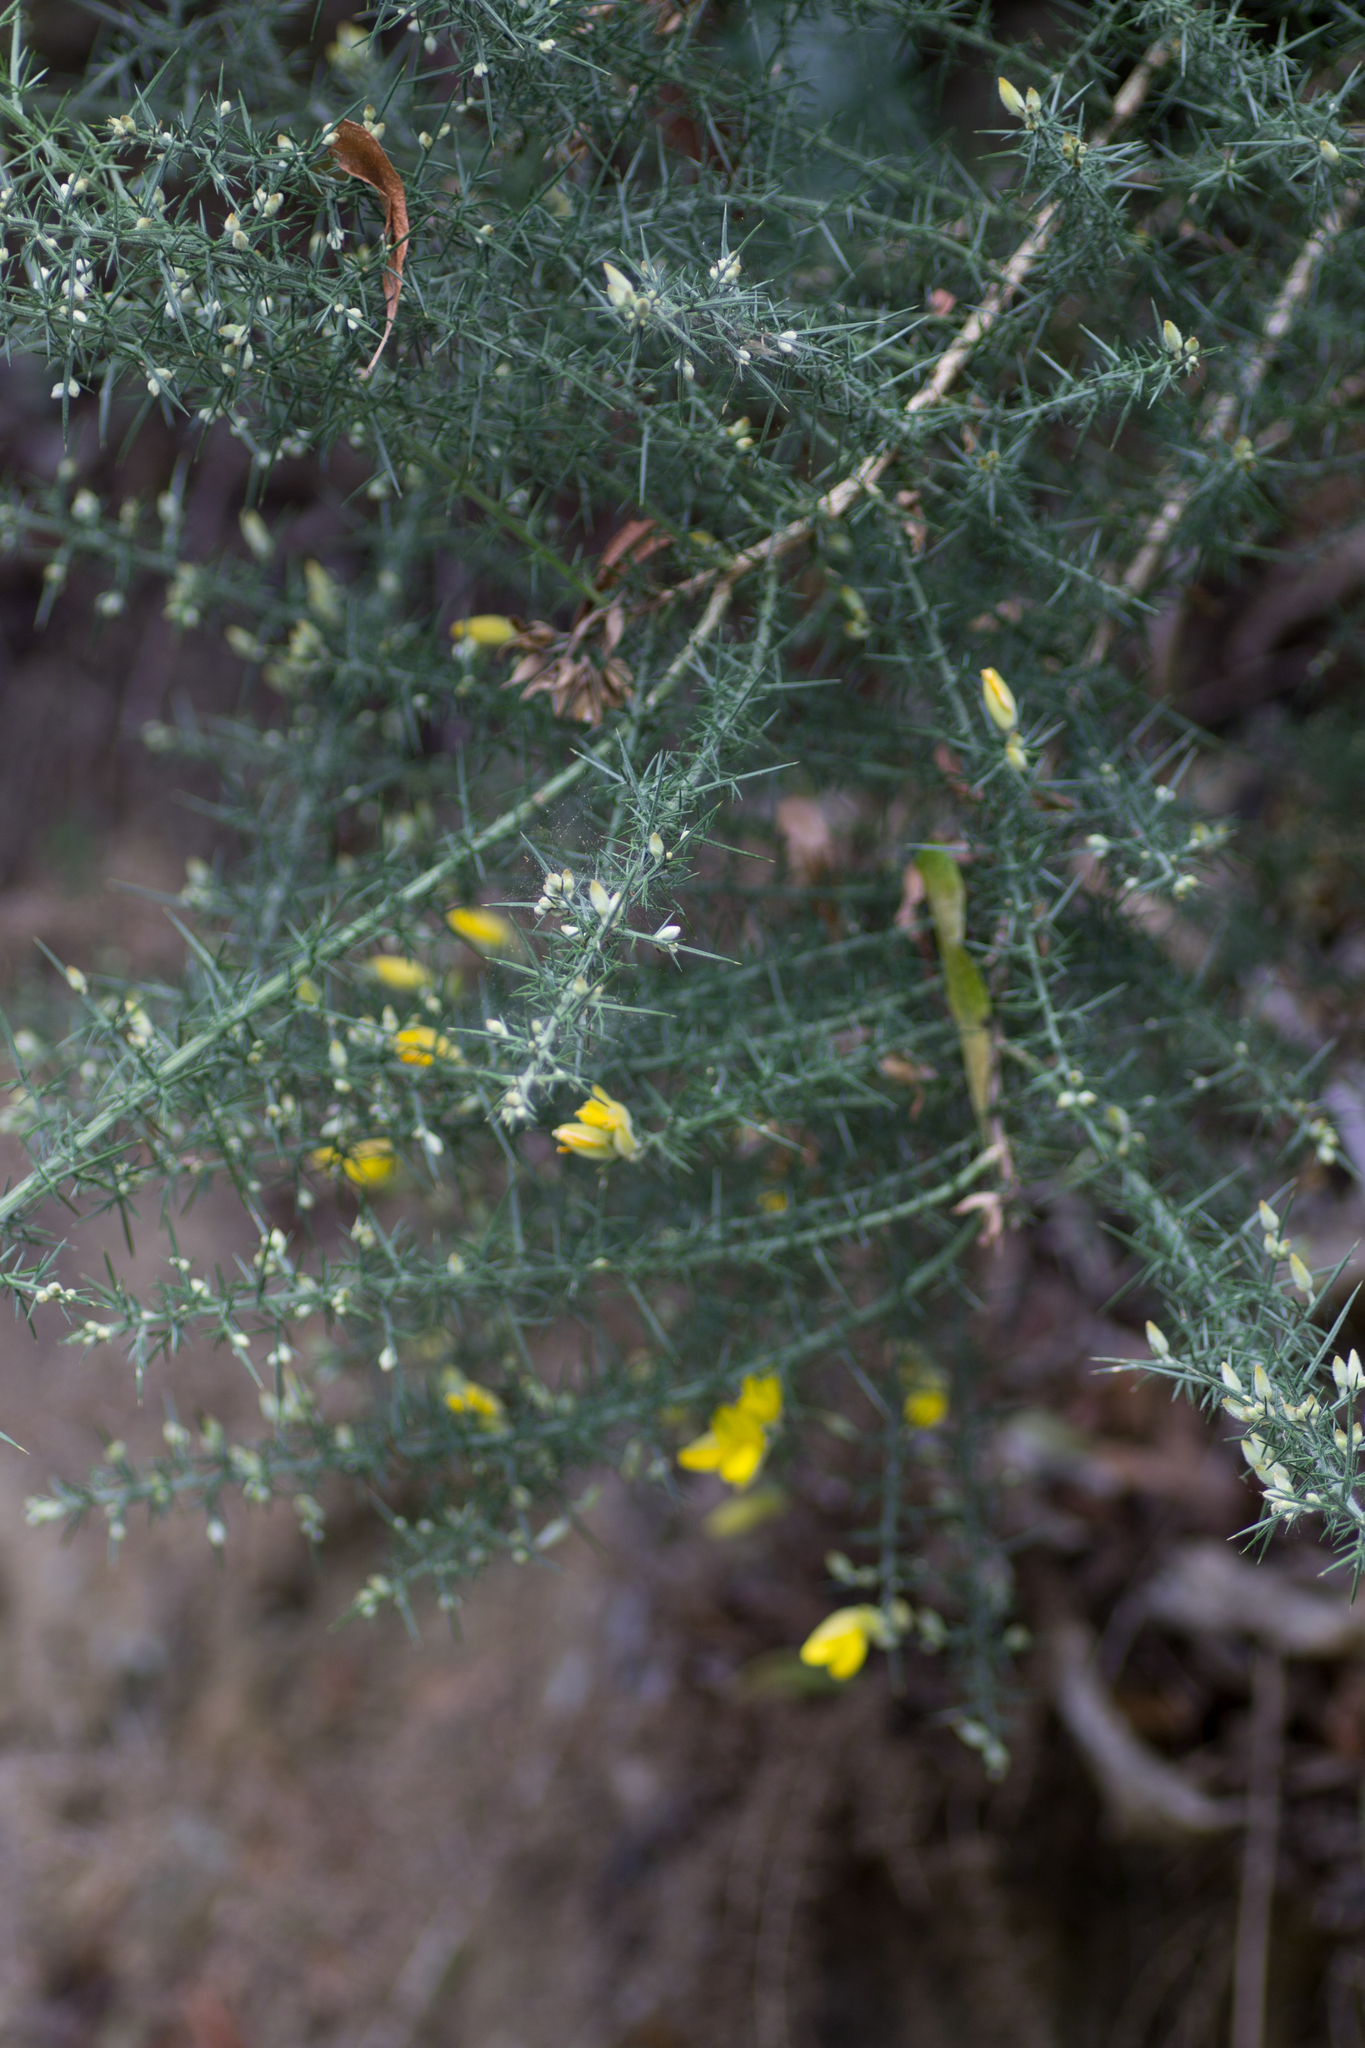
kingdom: Plantae
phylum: Tracheophyta
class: Magnoliopsida
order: Fabales
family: Fabaceae
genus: Ulex
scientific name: Ulex europaeus
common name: Common gorse
